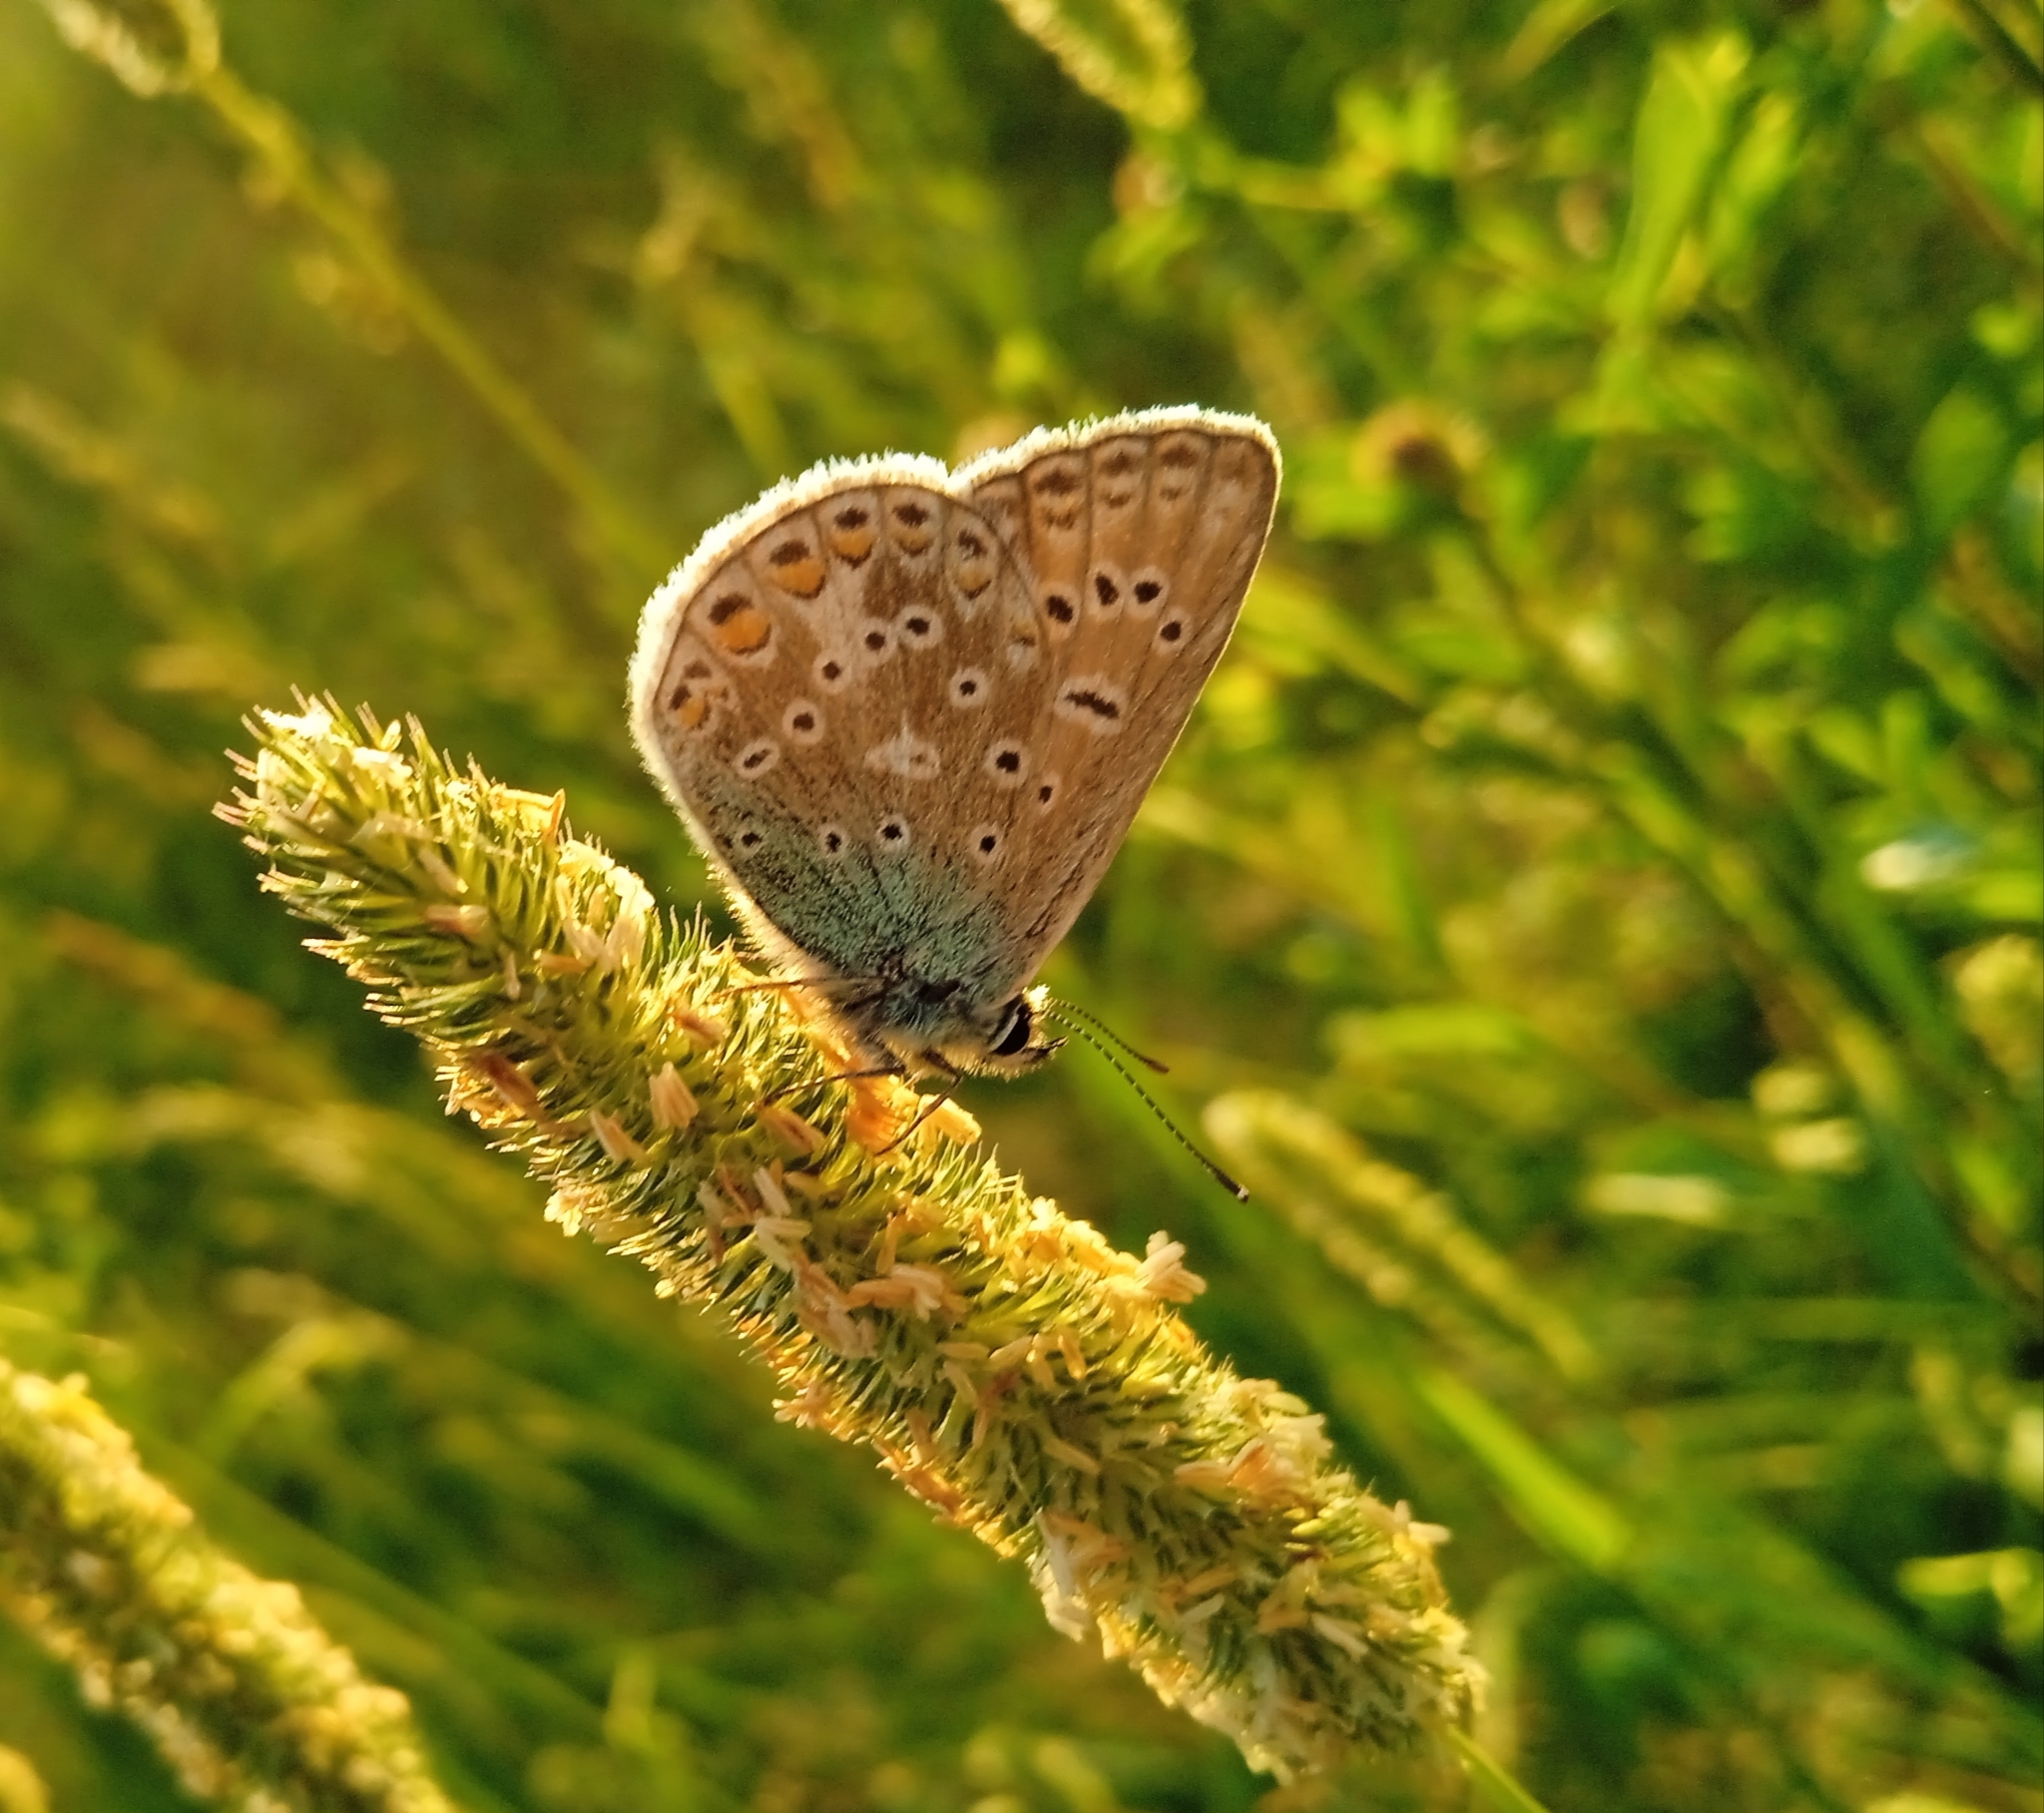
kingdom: Animalia
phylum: Arthropoda
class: Insecta
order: Lepidoptera
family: Lycaenidae
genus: Polyommatus
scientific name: Polyommatus icarus
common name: Common blue
